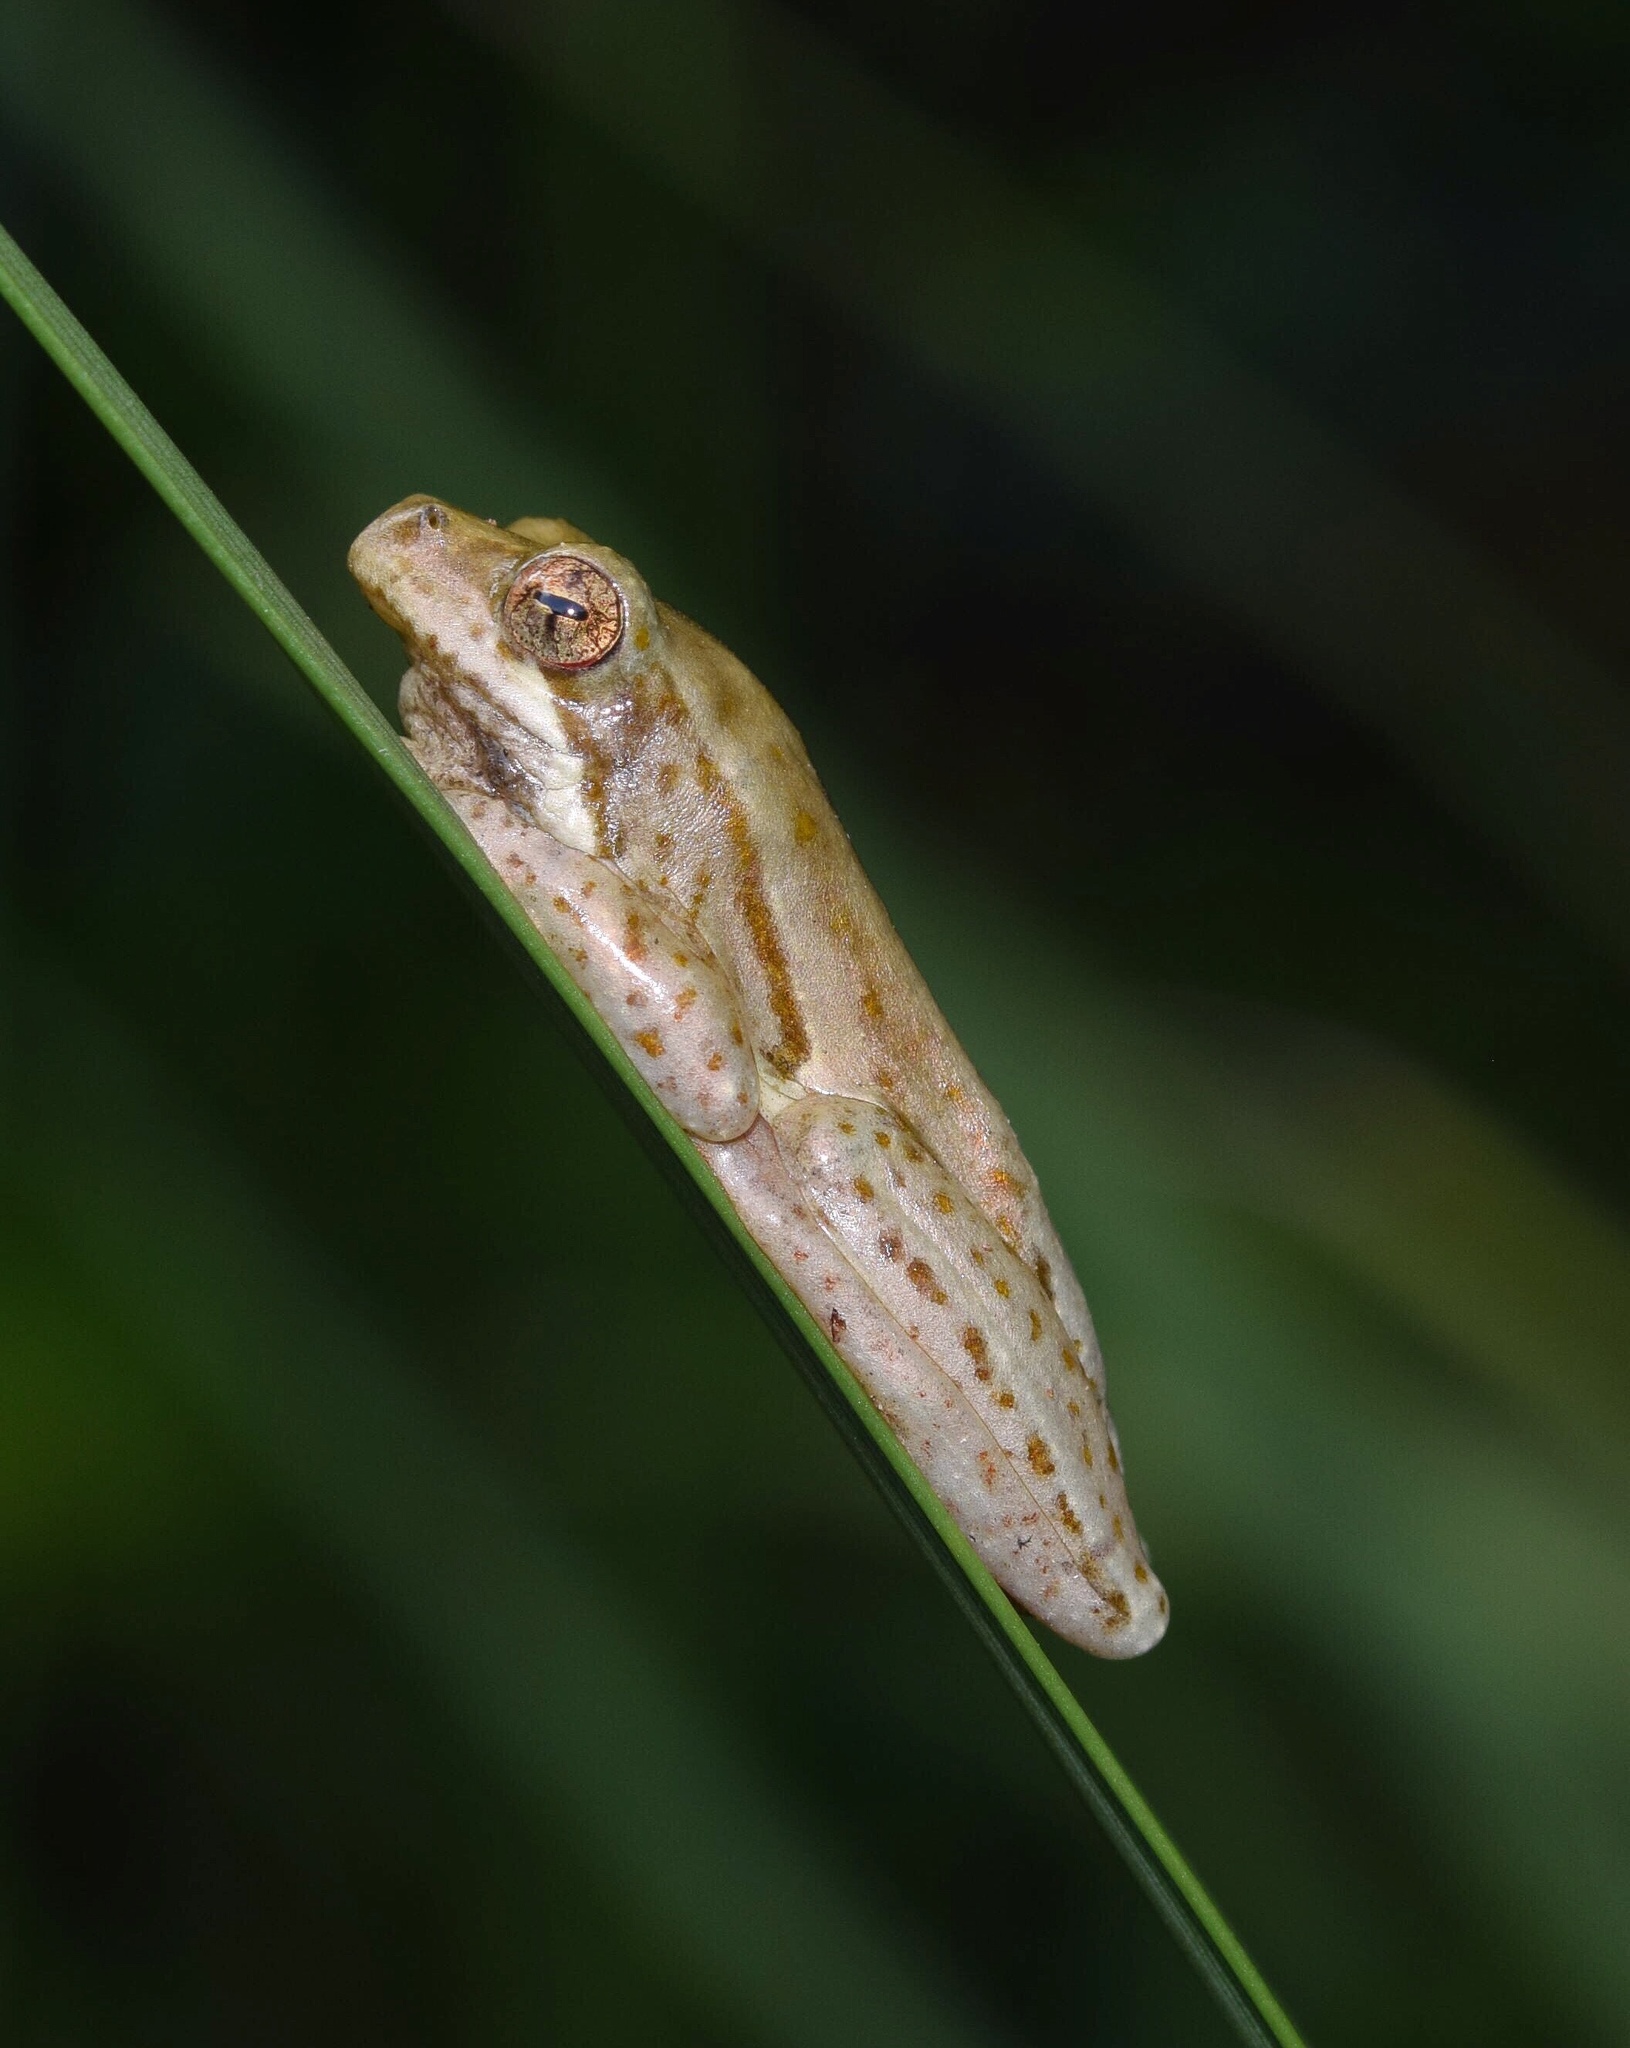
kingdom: Animalia
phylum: Chordata
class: Amphibia
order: Anura
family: Hyperoliidae
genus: Hyperolius
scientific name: Hyperolius marmoratus
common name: Painted reed frog
